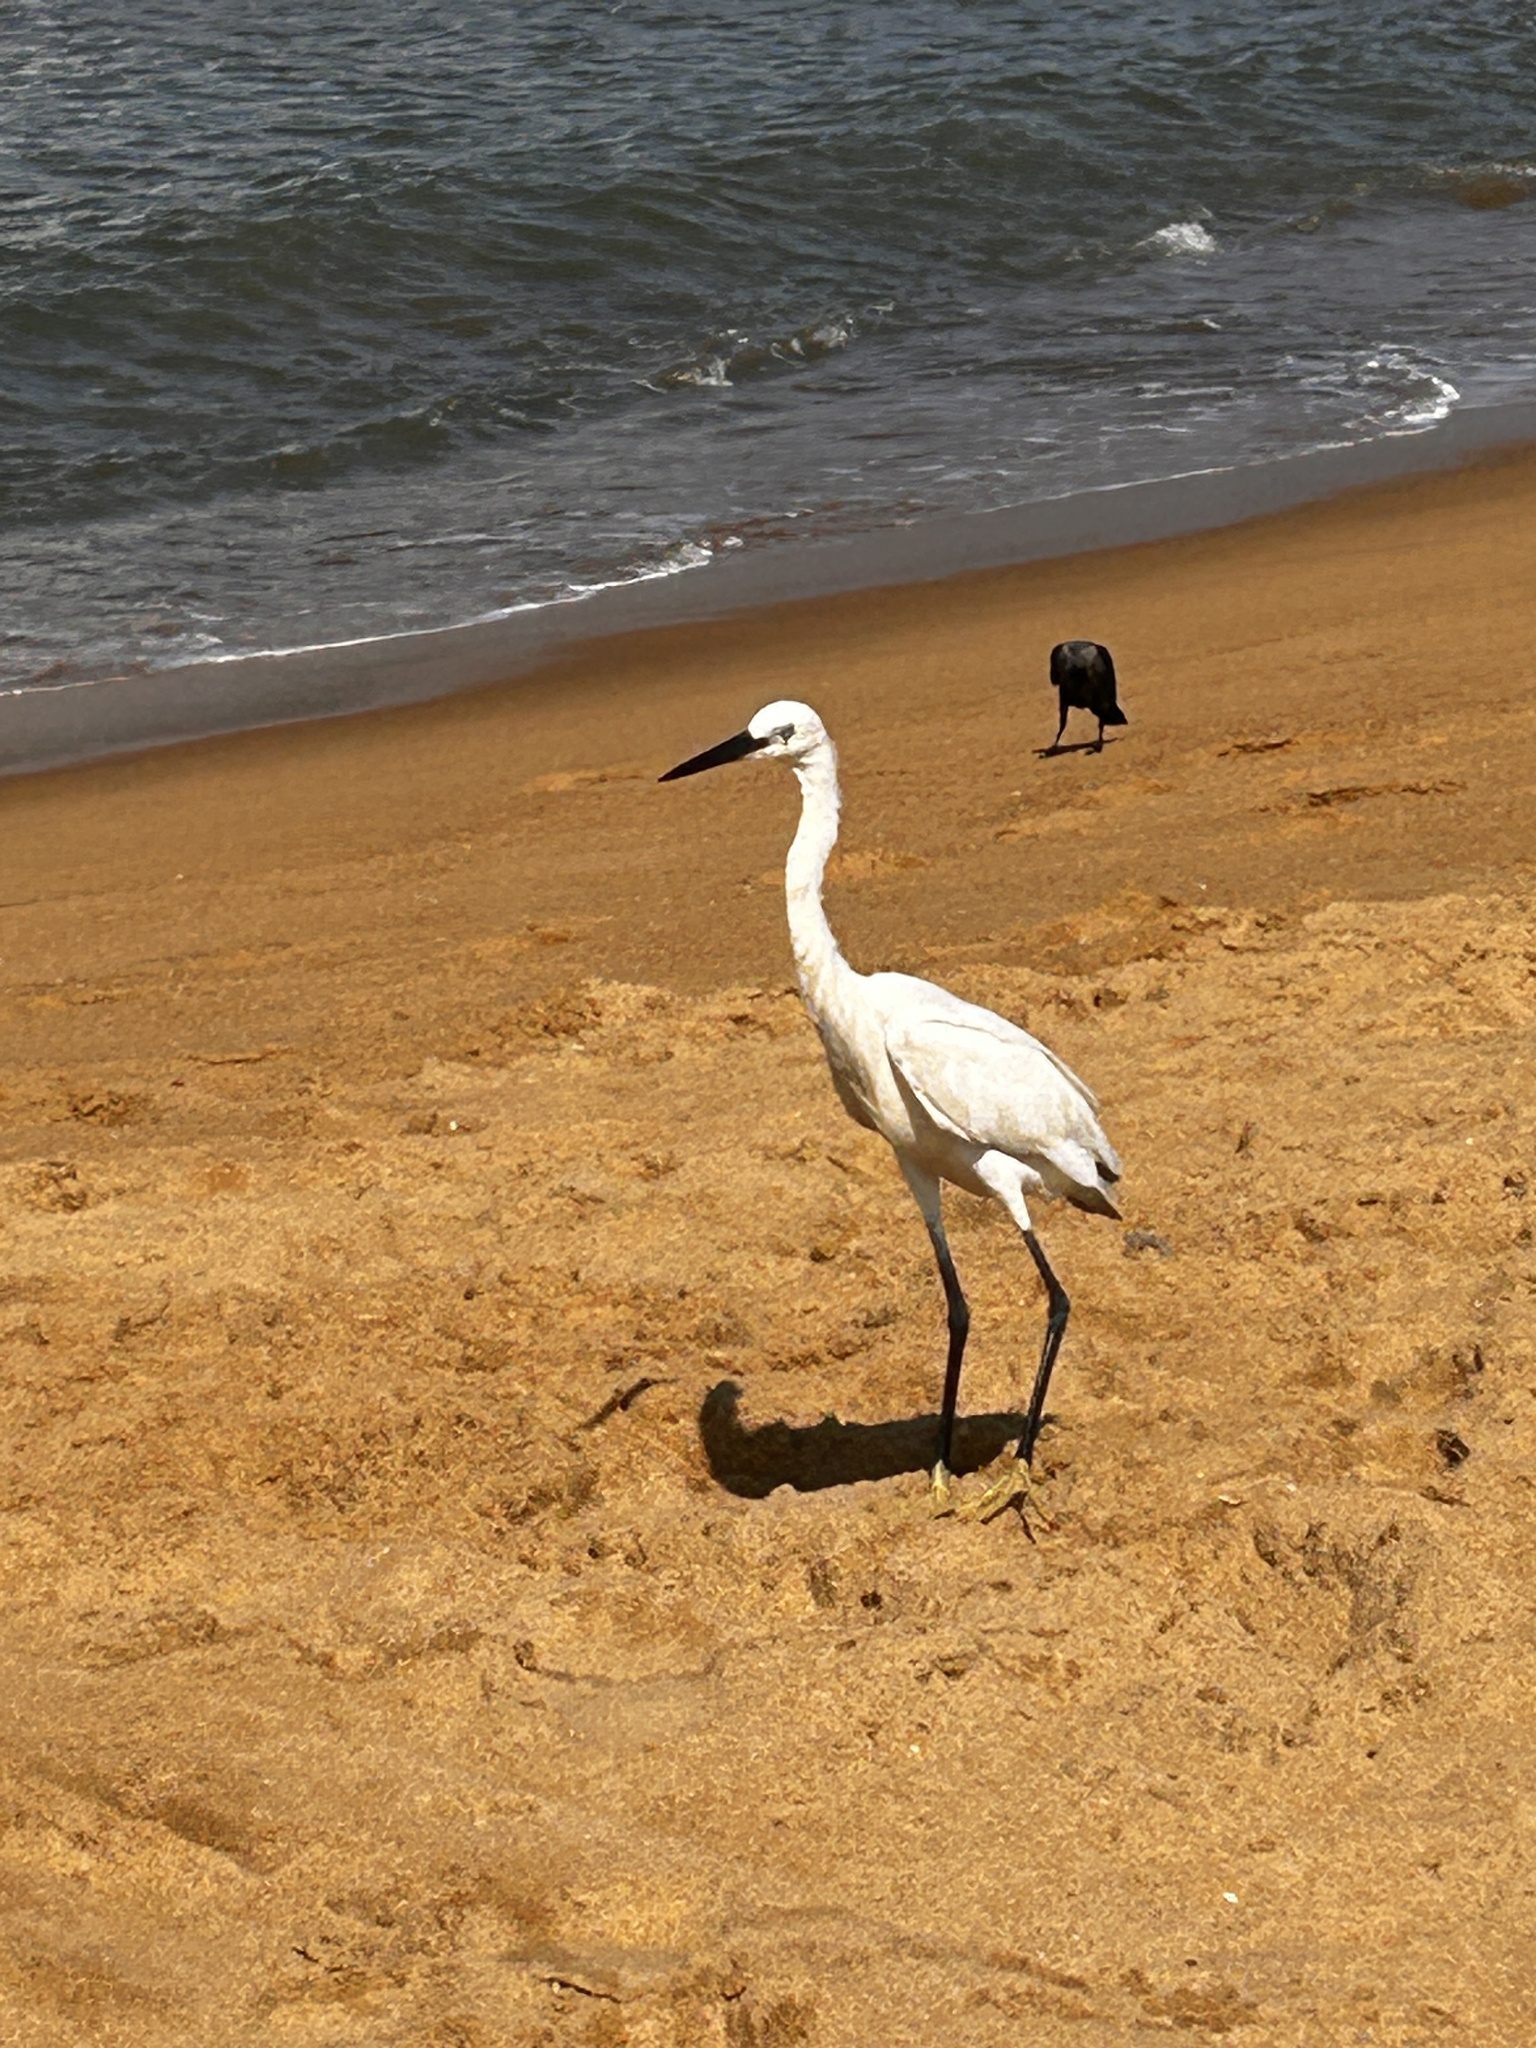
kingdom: Animalia
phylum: Chordata
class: Aves
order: Pelecaniformes
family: Ardeidae
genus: Egretta
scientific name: Egretta garzetta
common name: Little egret
